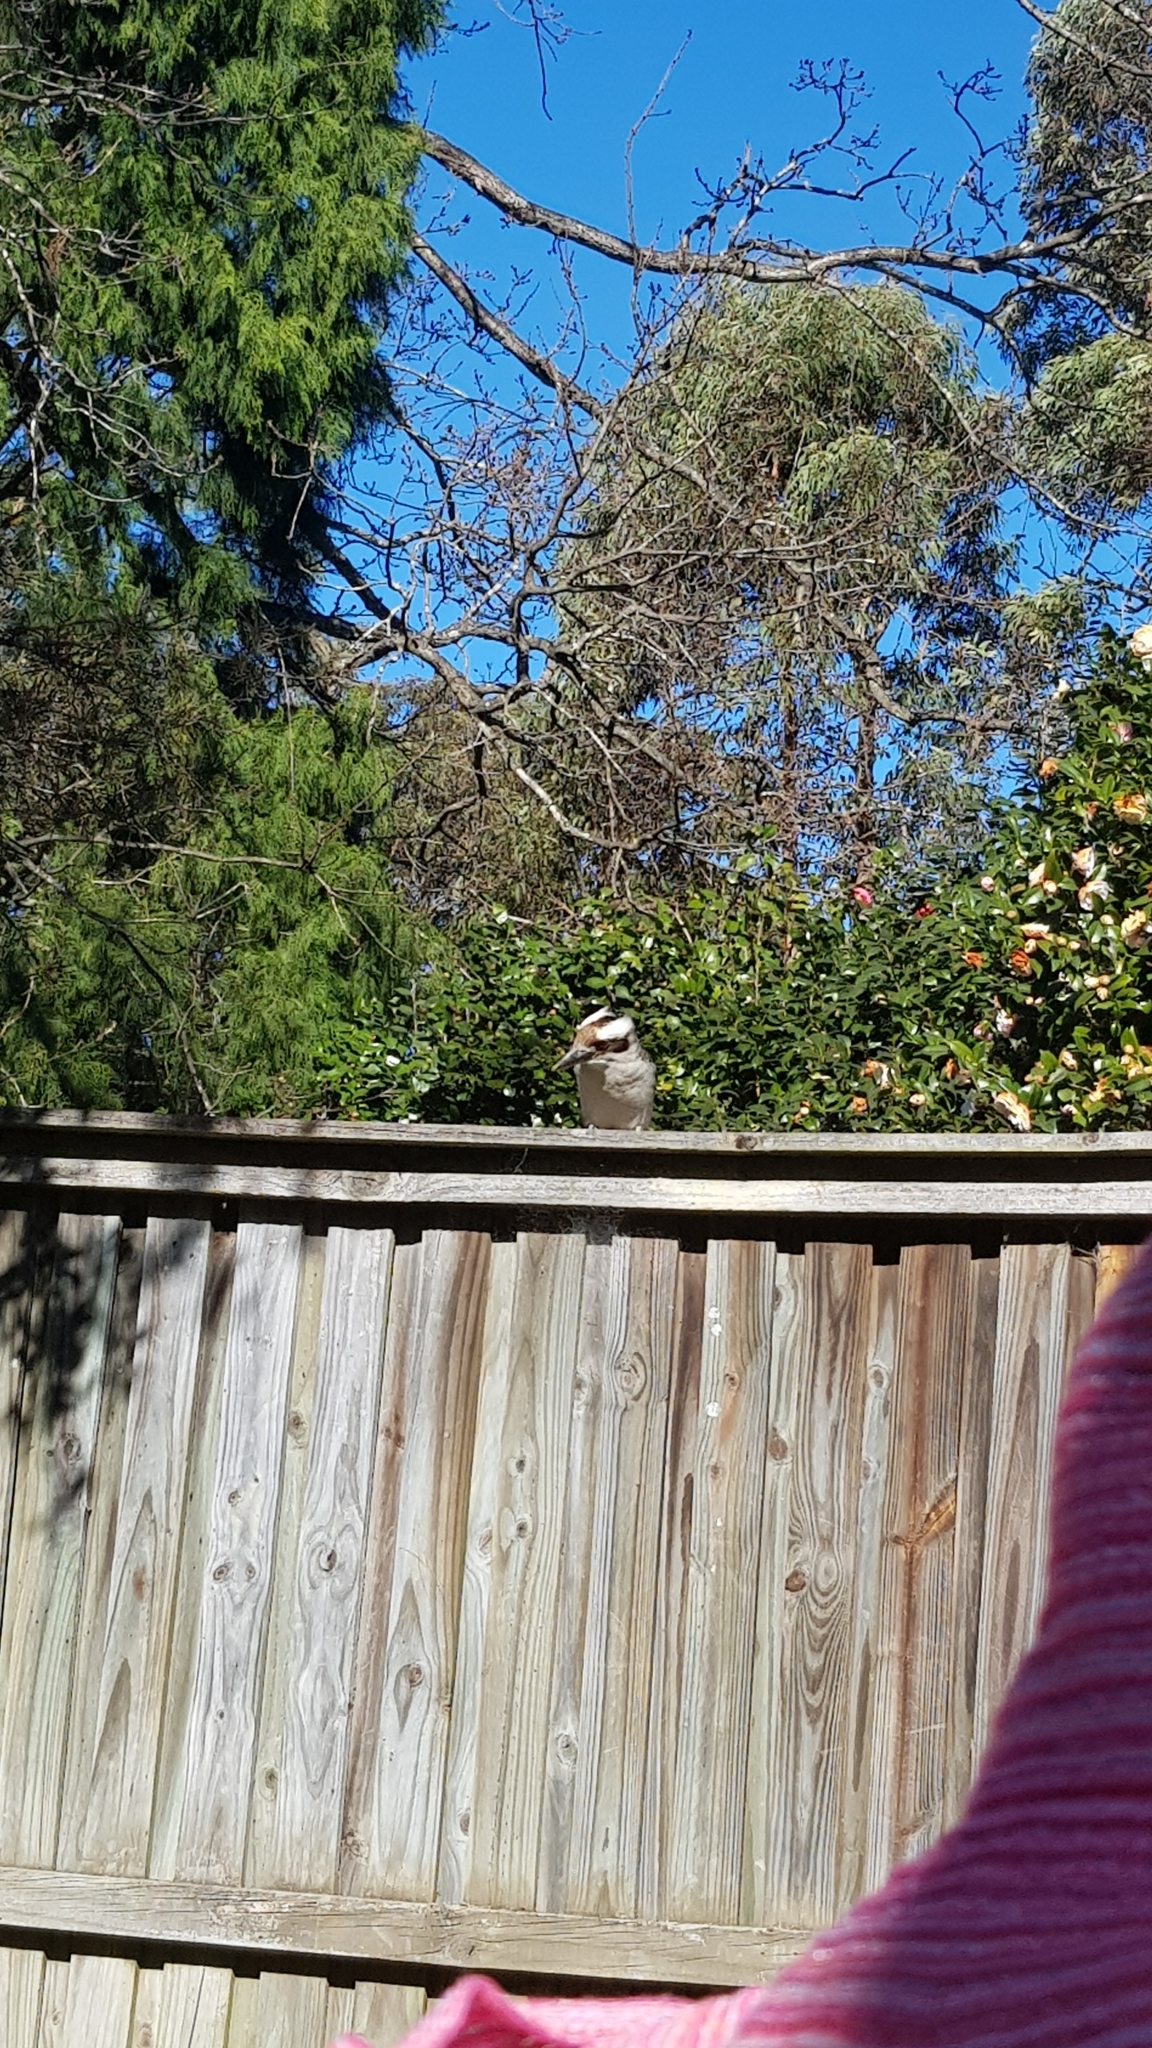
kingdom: Animalia
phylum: Chordata
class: Aves
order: Coraciiformes
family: Alcedinidae
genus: Dacelo
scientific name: Dacelo novaeguineae
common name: Laughing kookaburra
